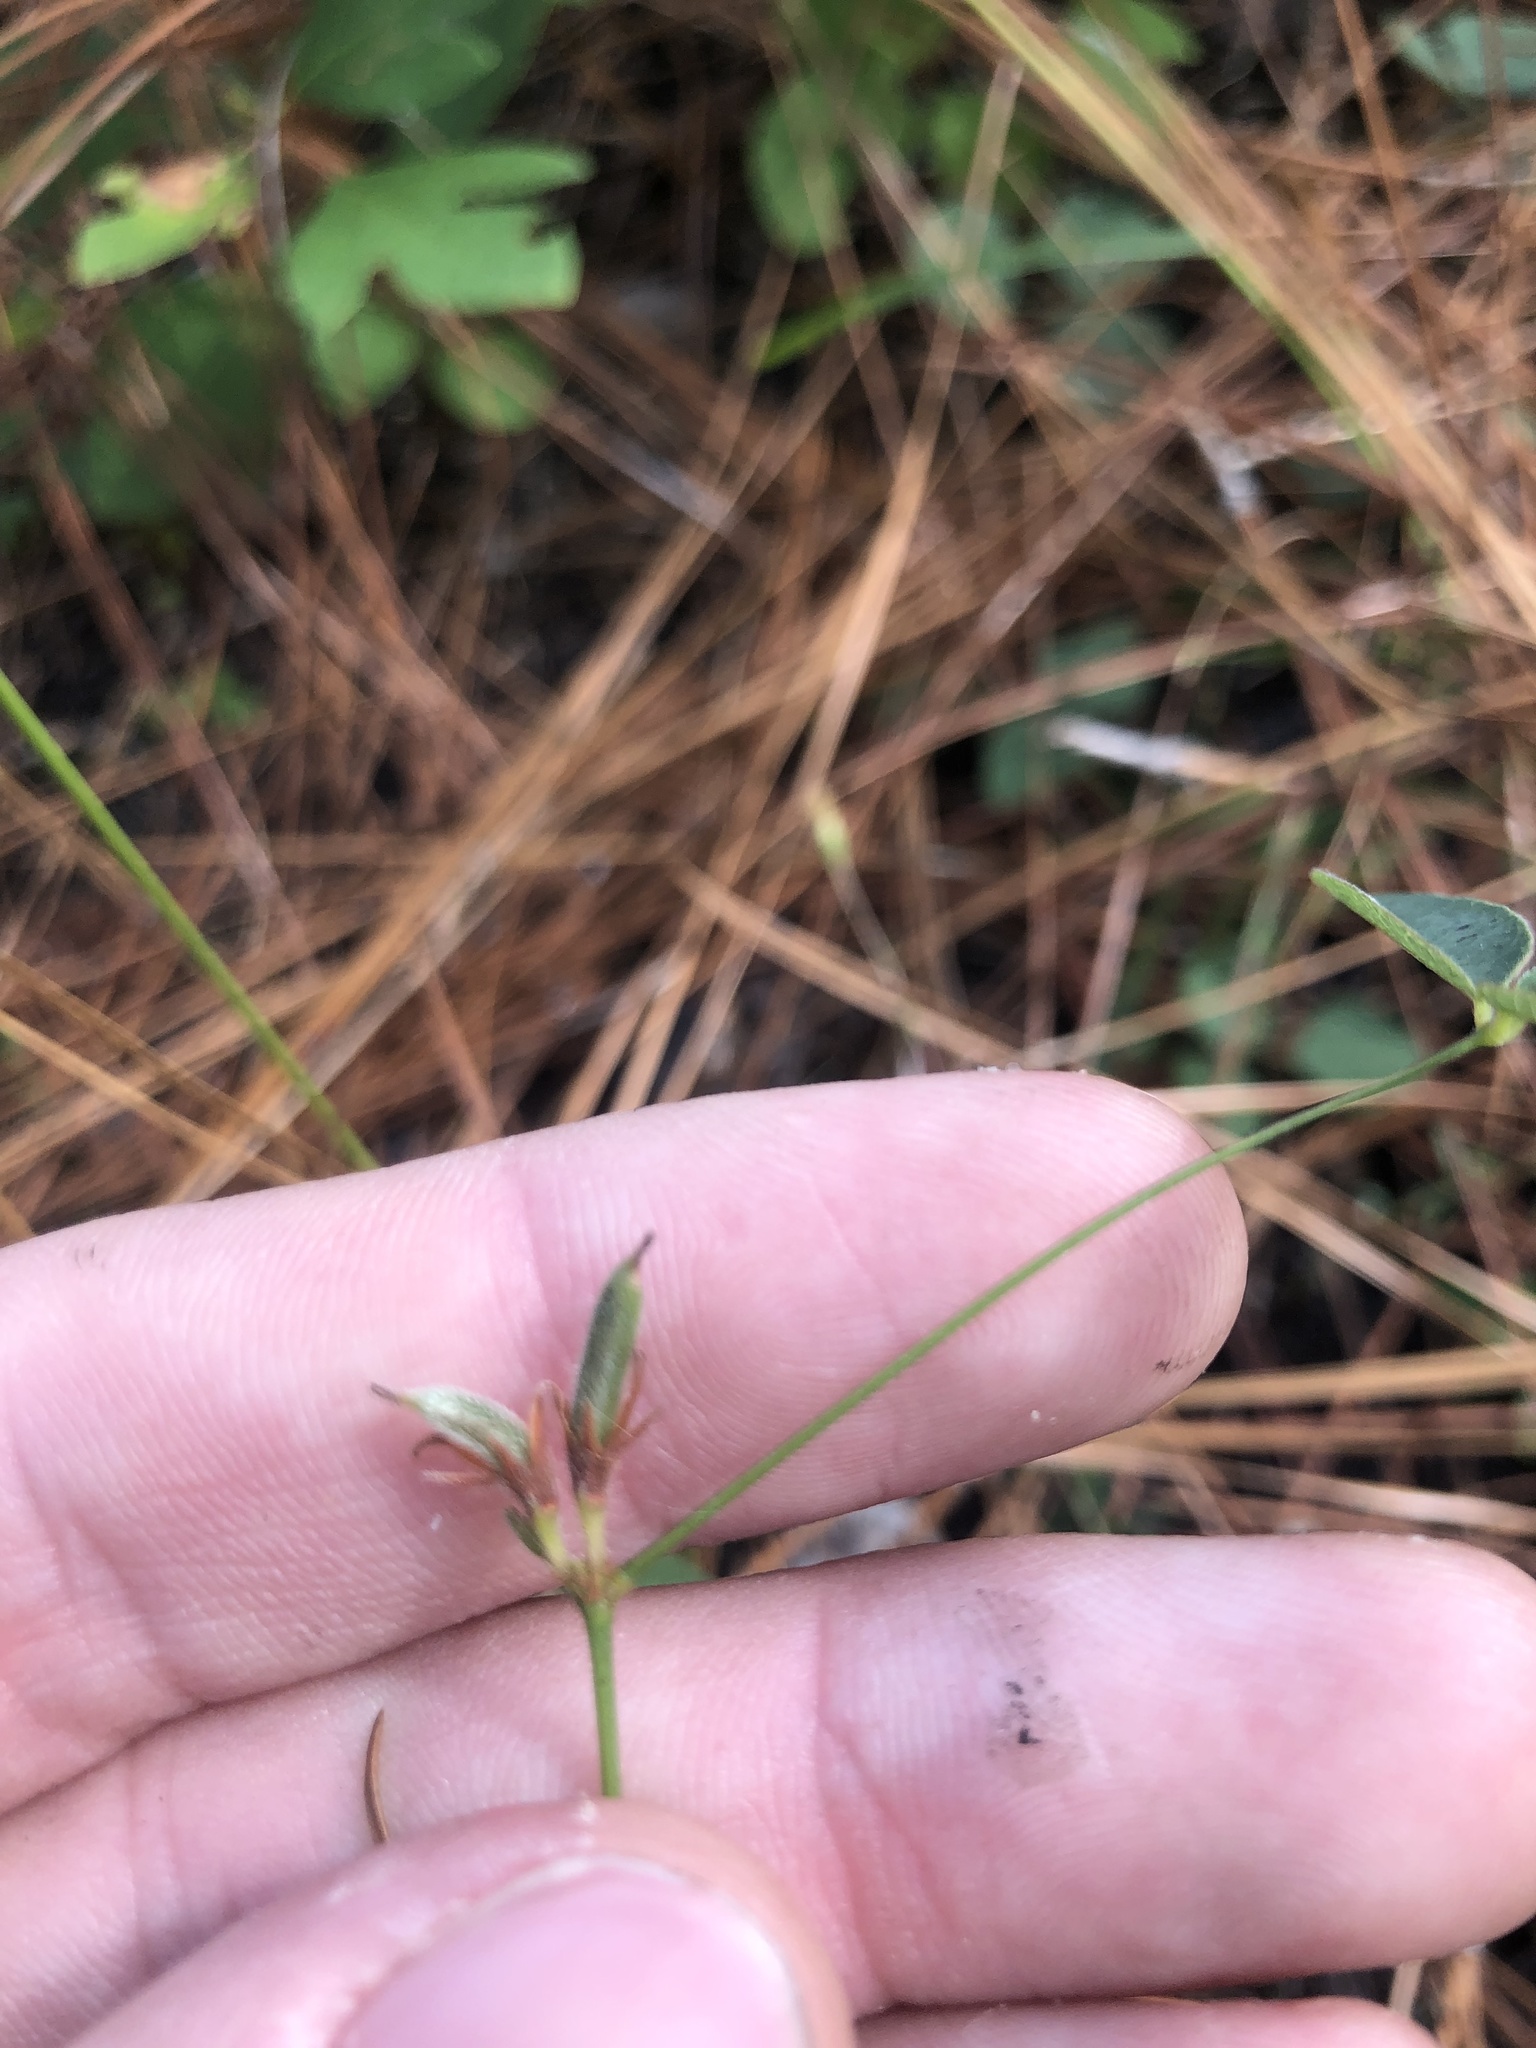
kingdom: Plantae
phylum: Tracheophyta
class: Magnoliopsida
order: Fabales
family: Fabaceae
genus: Galactia
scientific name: Galactia erecta
